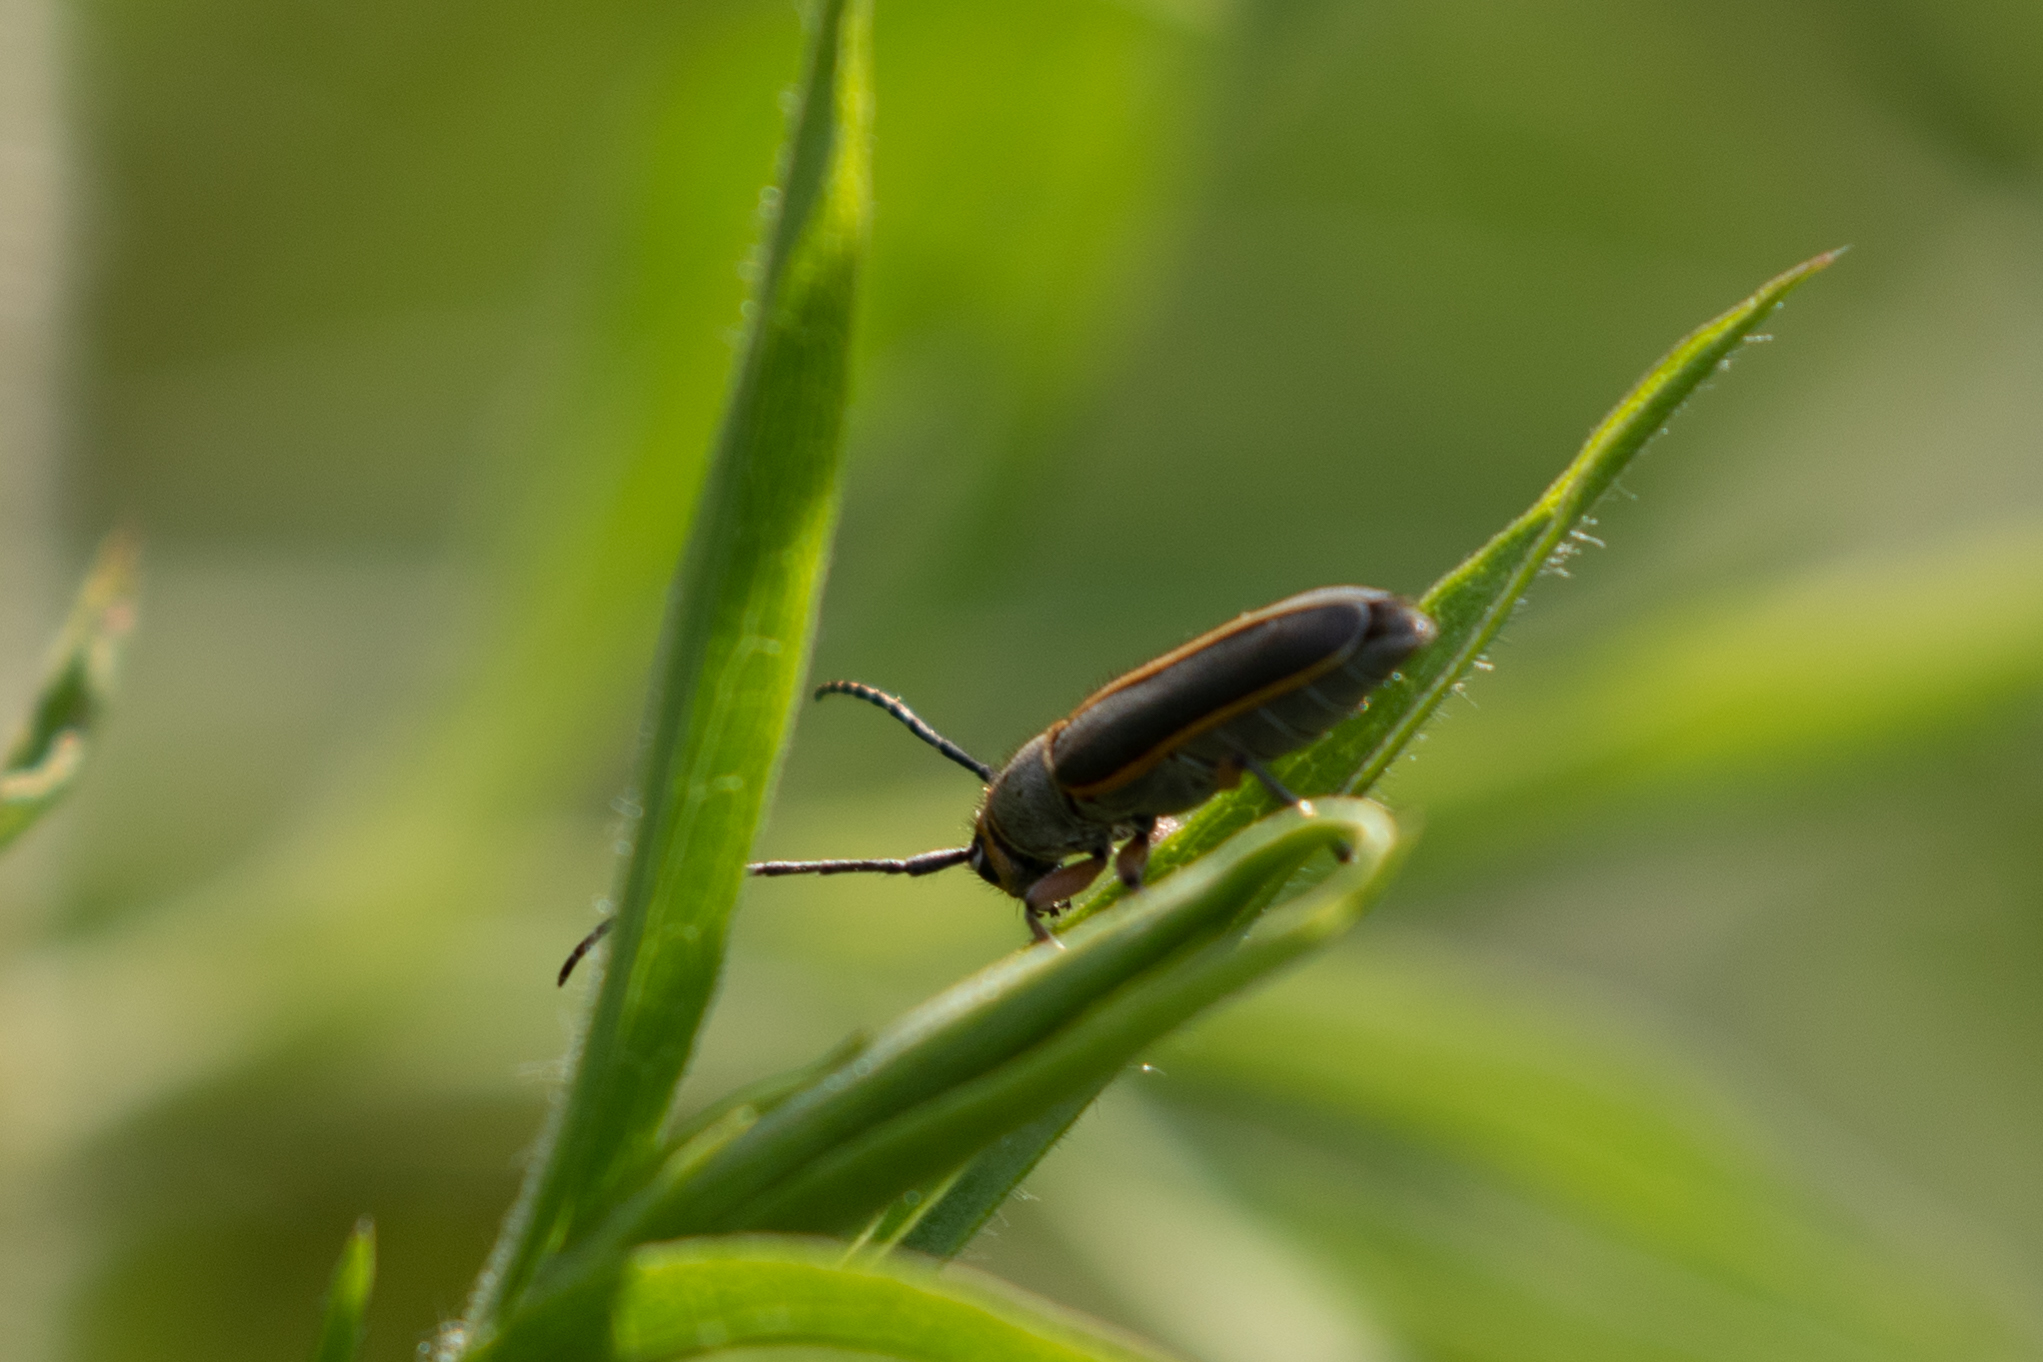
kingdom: Animalia
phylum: Arthropoda
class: Insecta
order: Coleoptera
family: Cerambycidae
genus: Saperda
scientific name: Saperda lateralis
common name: Red-edged saperda
